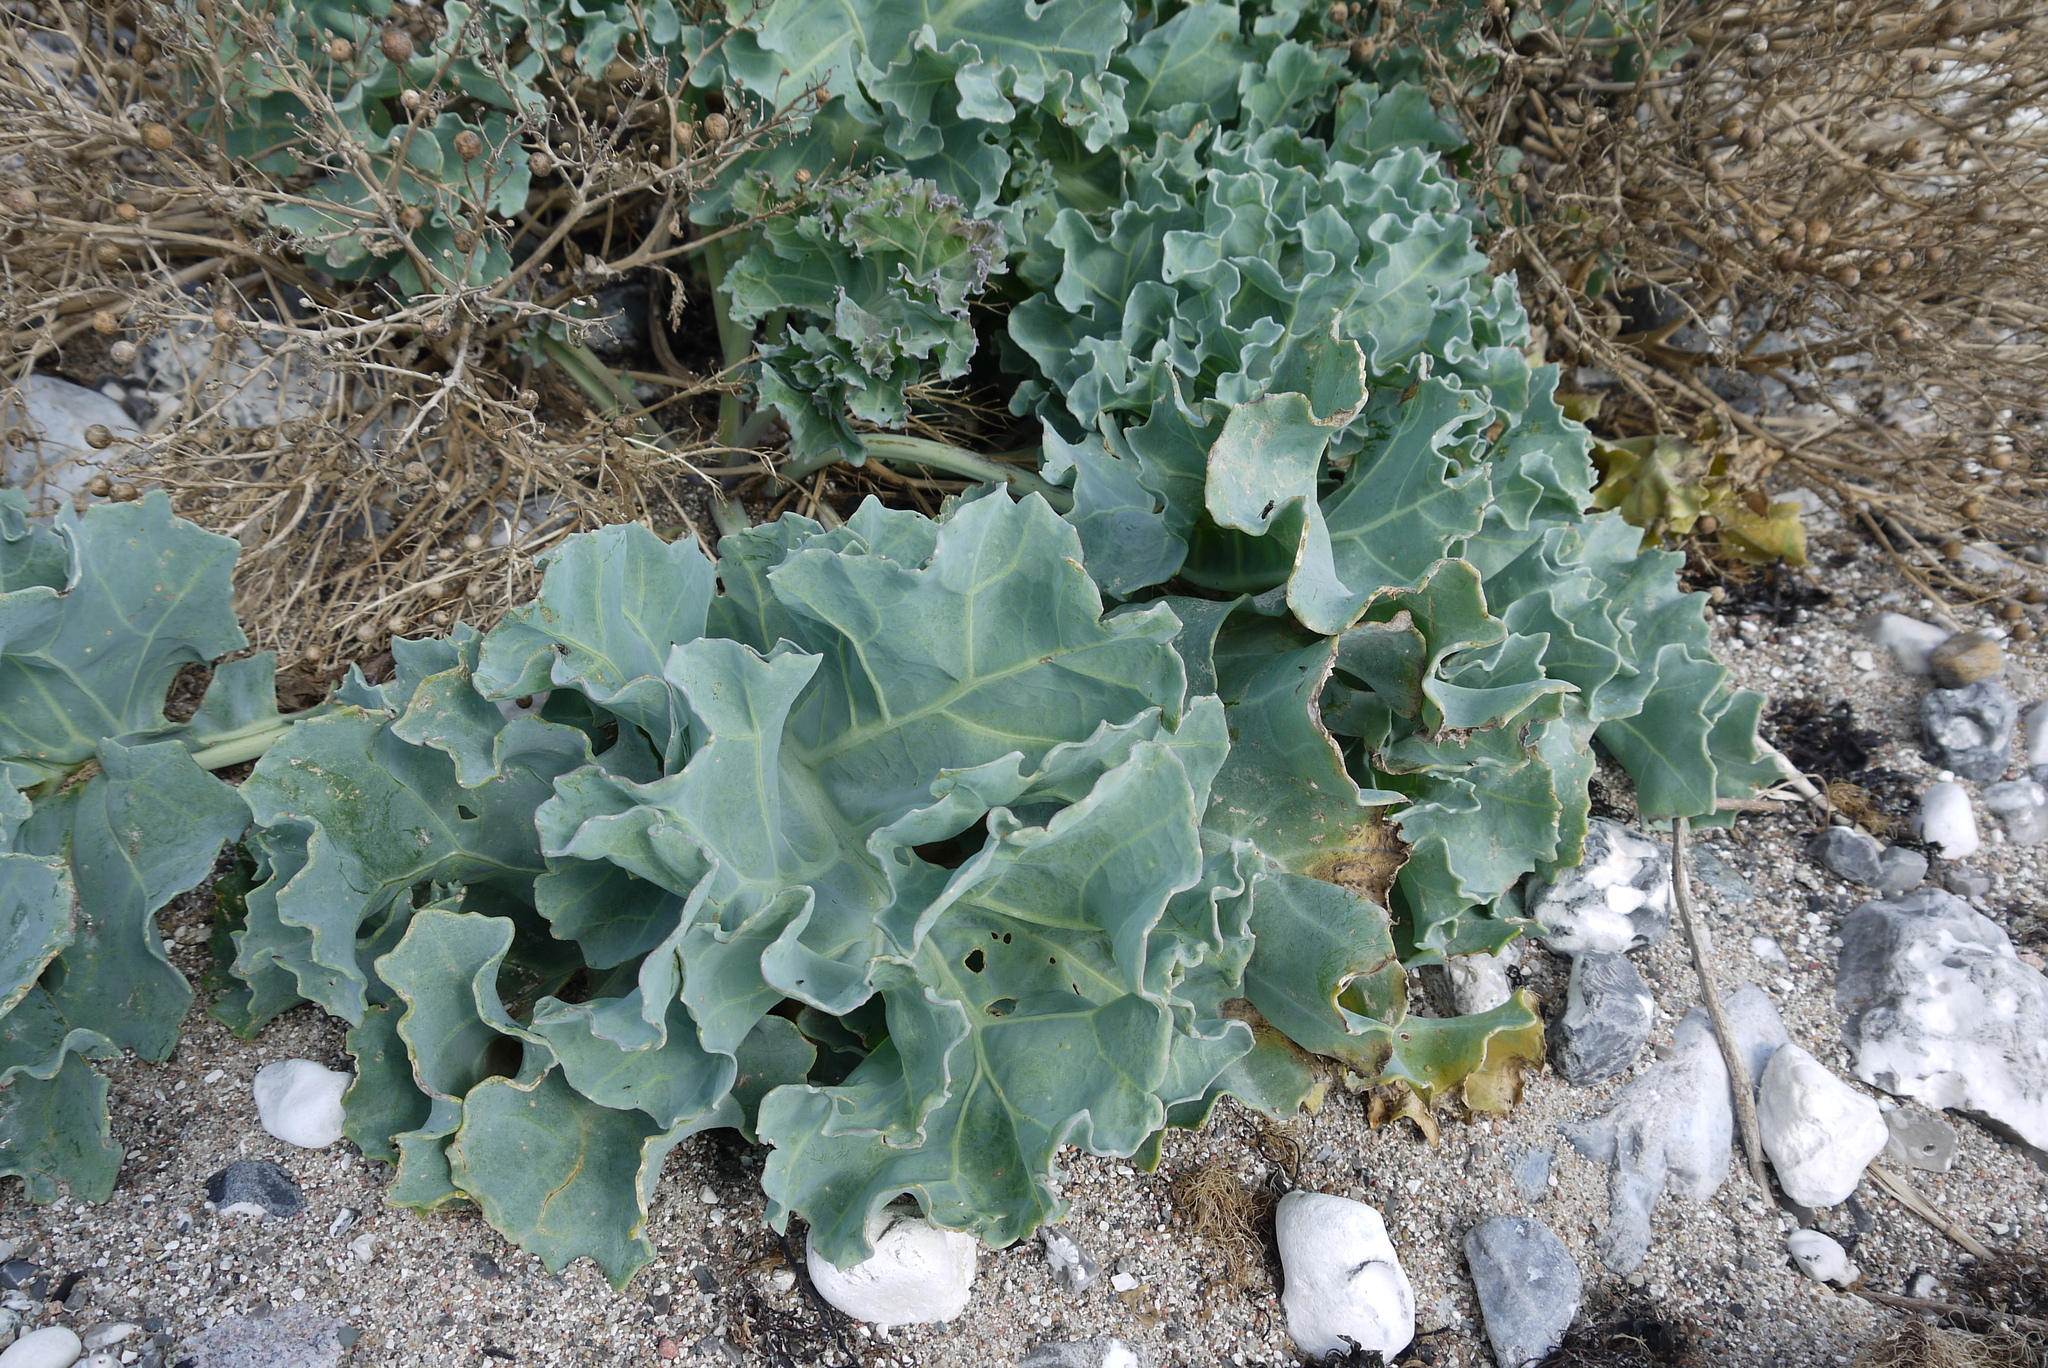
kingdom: Plantae
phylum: Tracheophyta
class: Magnoliopsida
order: Brassicales
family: Brassicaceae
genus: Crambe
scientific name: Crambe maritima
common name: Sea-kale
